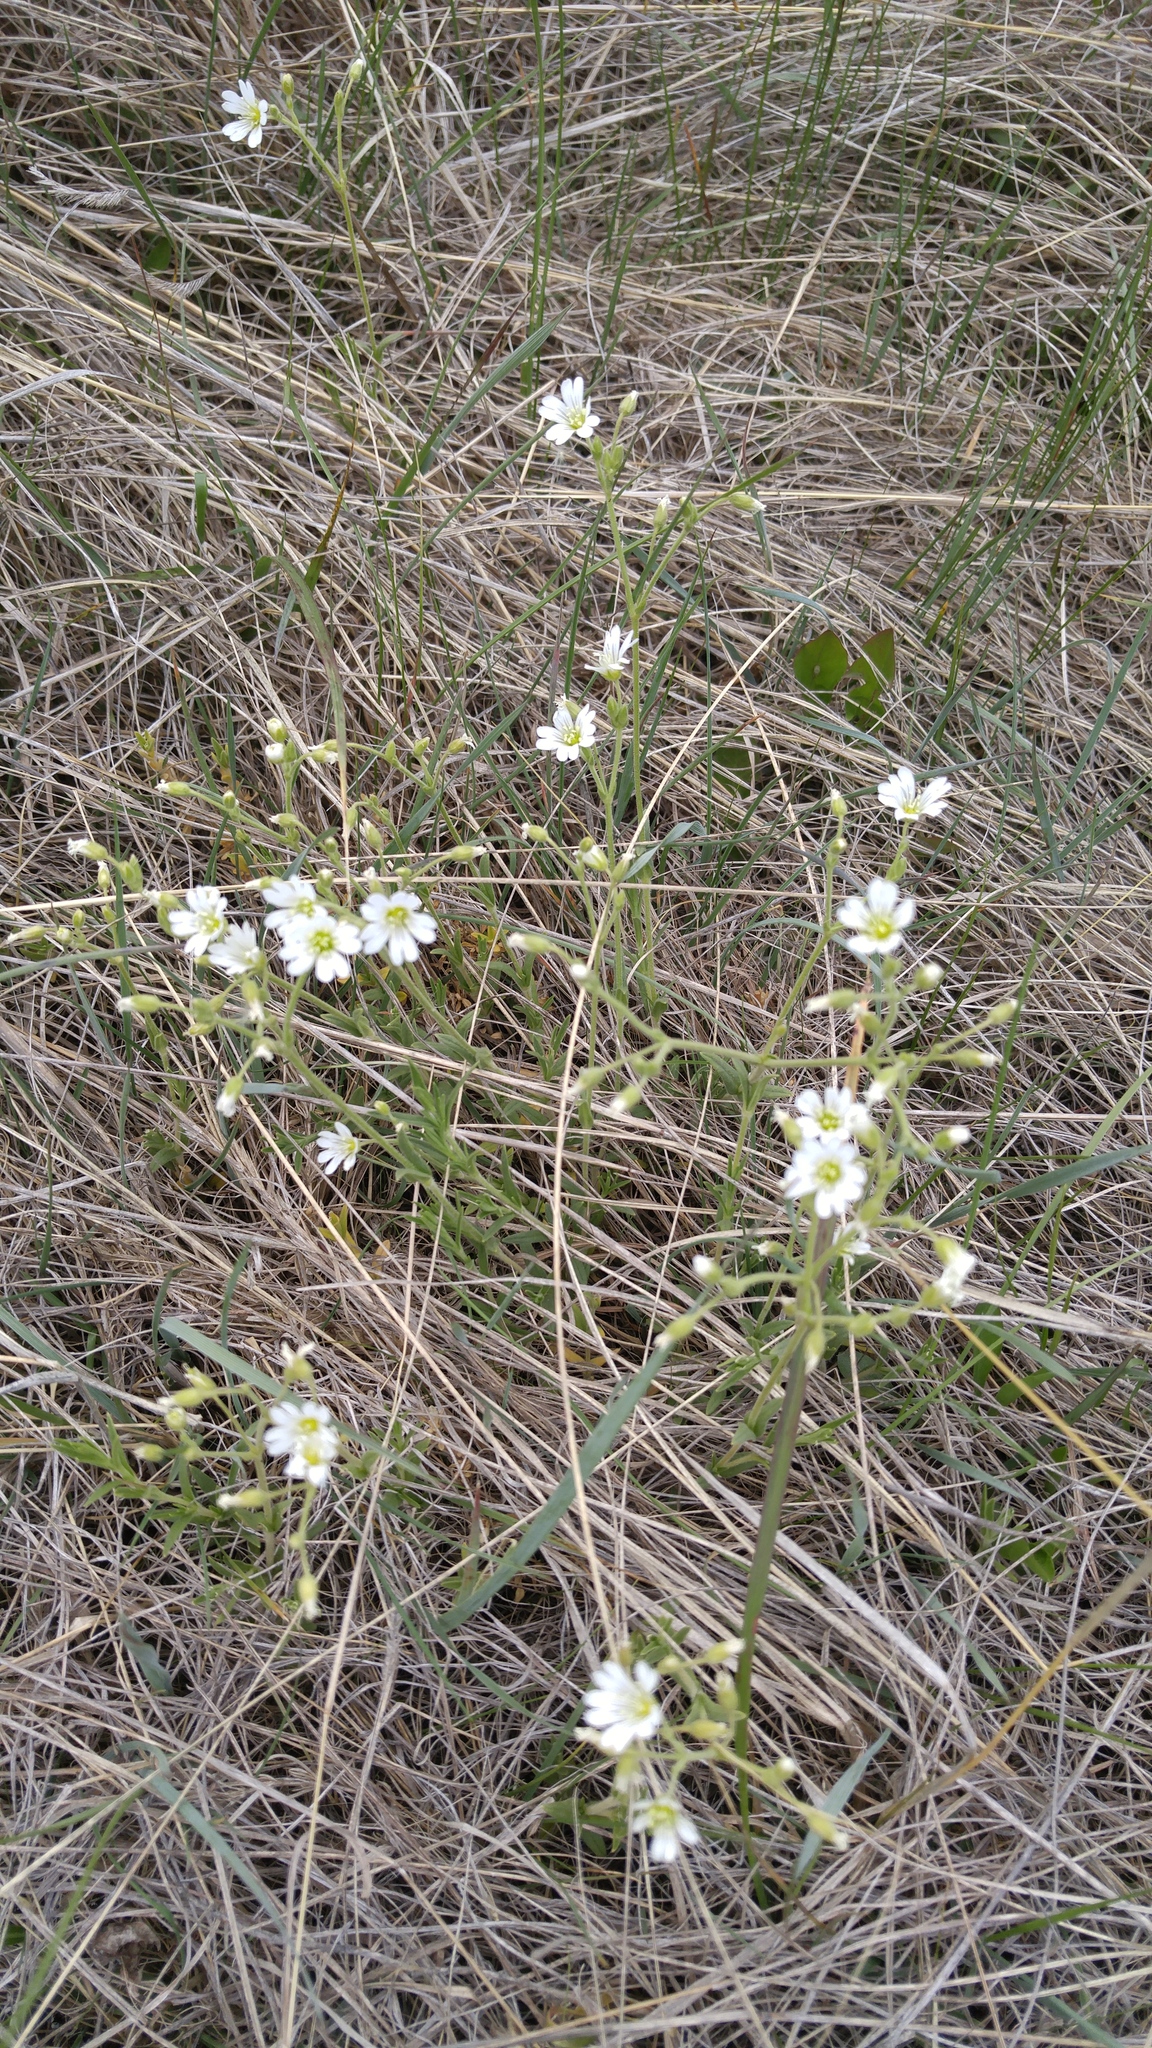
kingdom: Plantae
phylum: Tracheophyta
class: Magnoliopsida
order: Caryophyllales
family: Caryophyllaceae
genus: Cerastium
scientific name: Cerastium arvense
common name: Field mouse-ear
